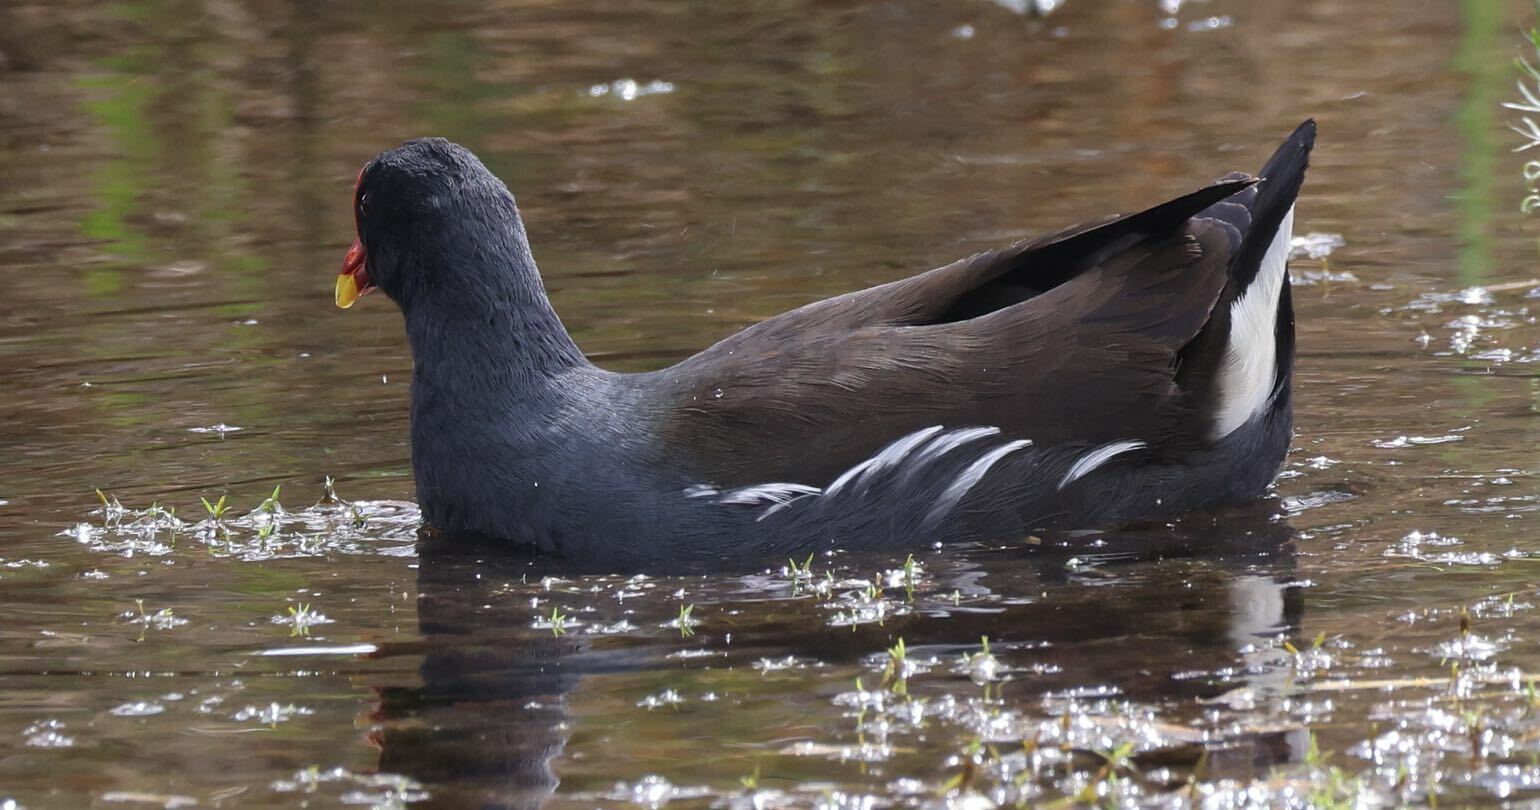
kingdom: Animalia
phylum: Chordata
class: Aves
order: Gruiformes
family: Rallidae
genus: Gallinula
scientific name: Gallinula chloropus
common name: Common moorhen
